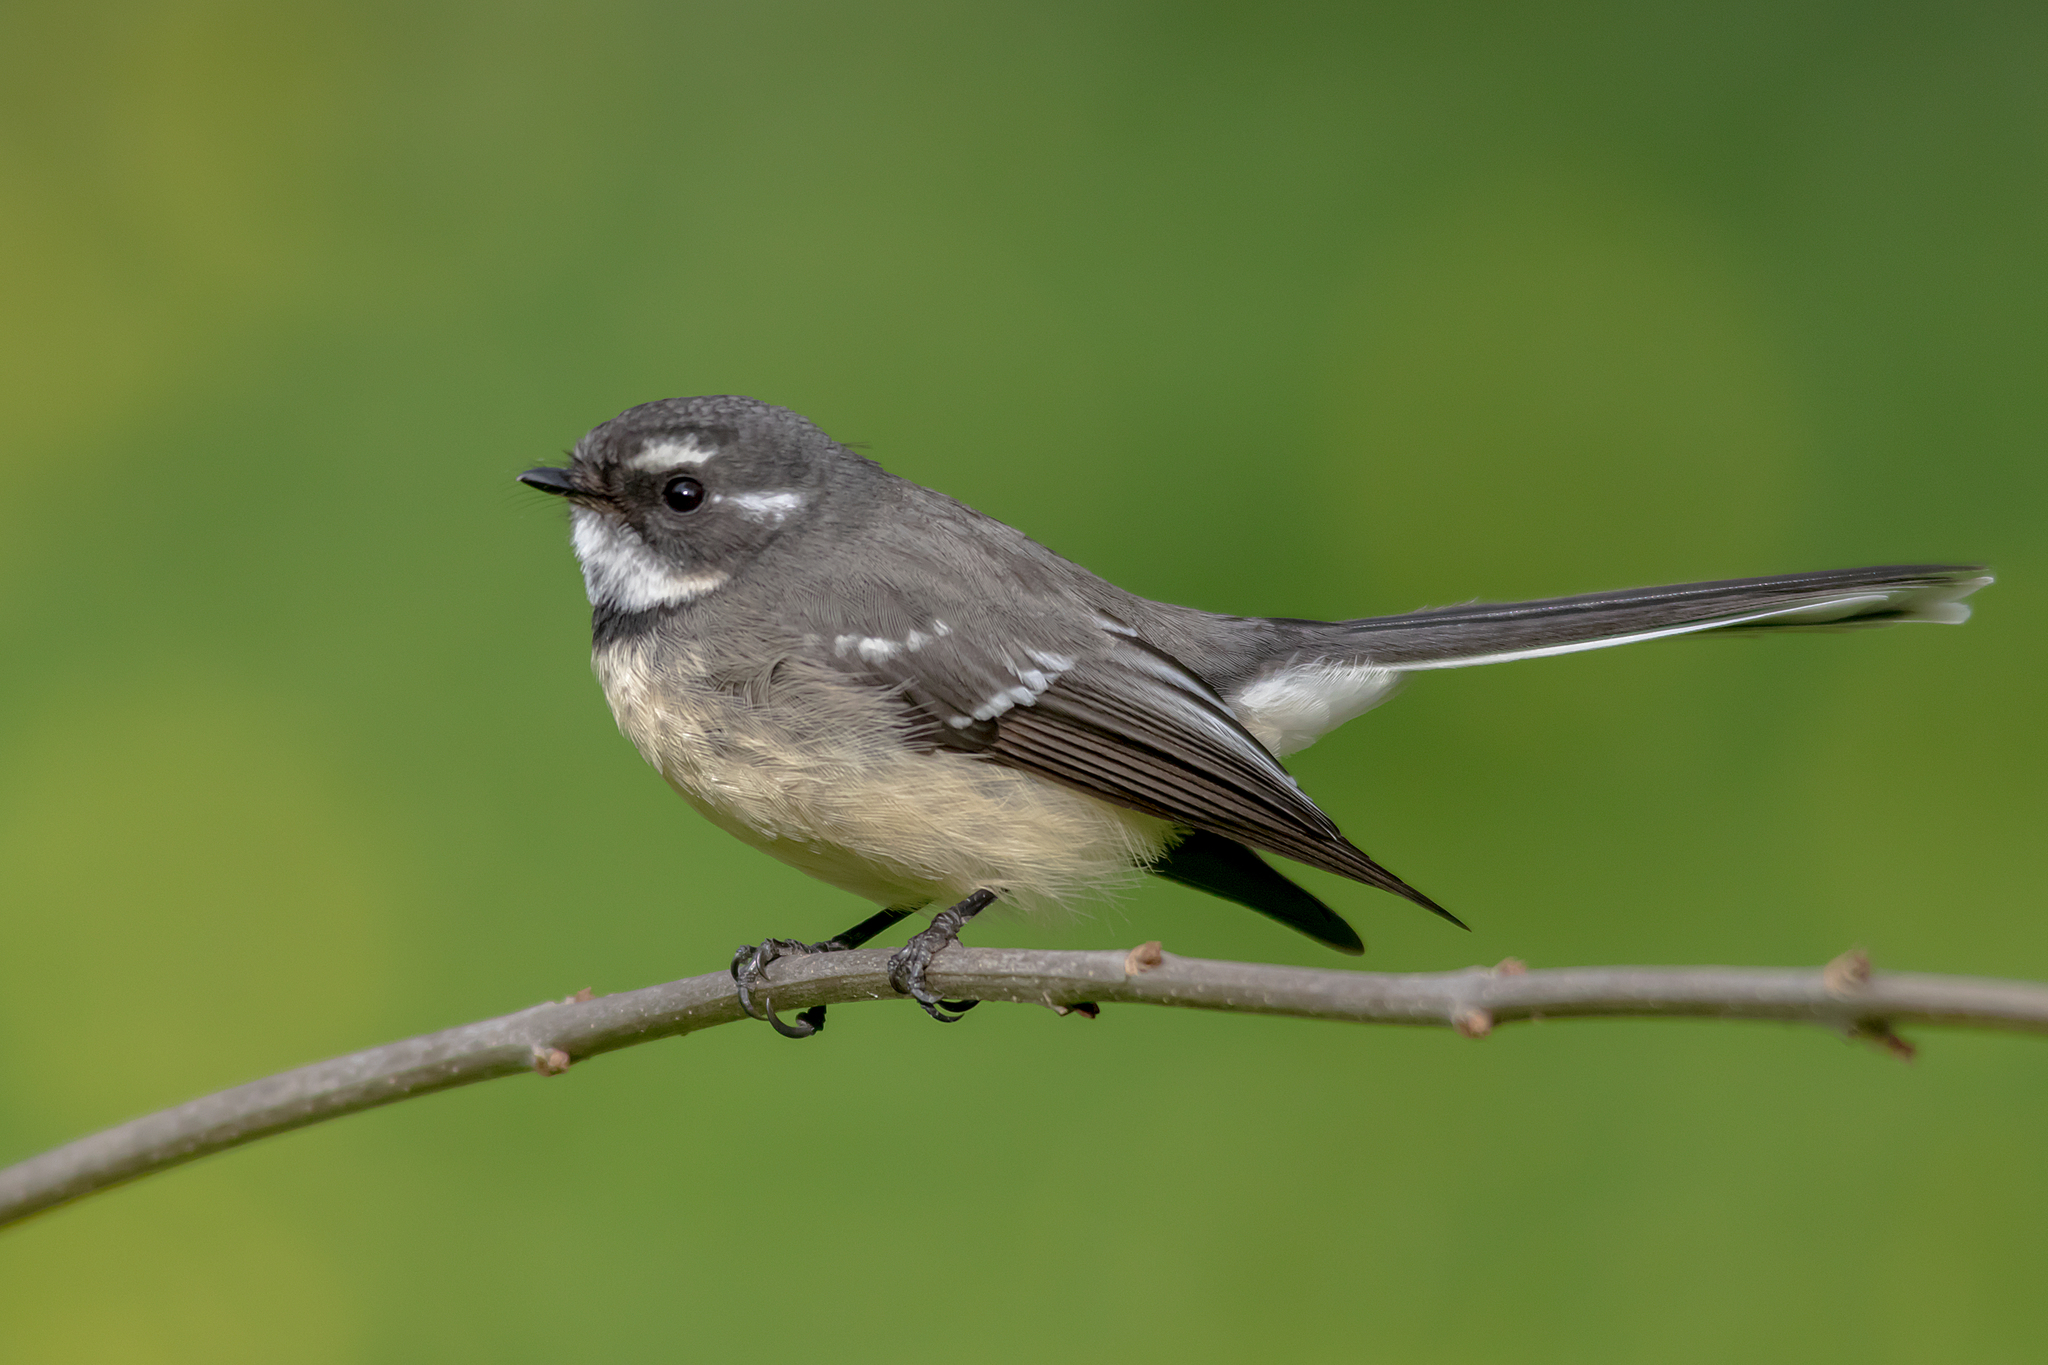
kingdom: Animalia
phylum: Chordata
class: Aves
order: Passeriformes
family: Rhipiduridae
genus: Rhipidura
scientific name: Rhipidura albiscapa
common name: Grey fantail
